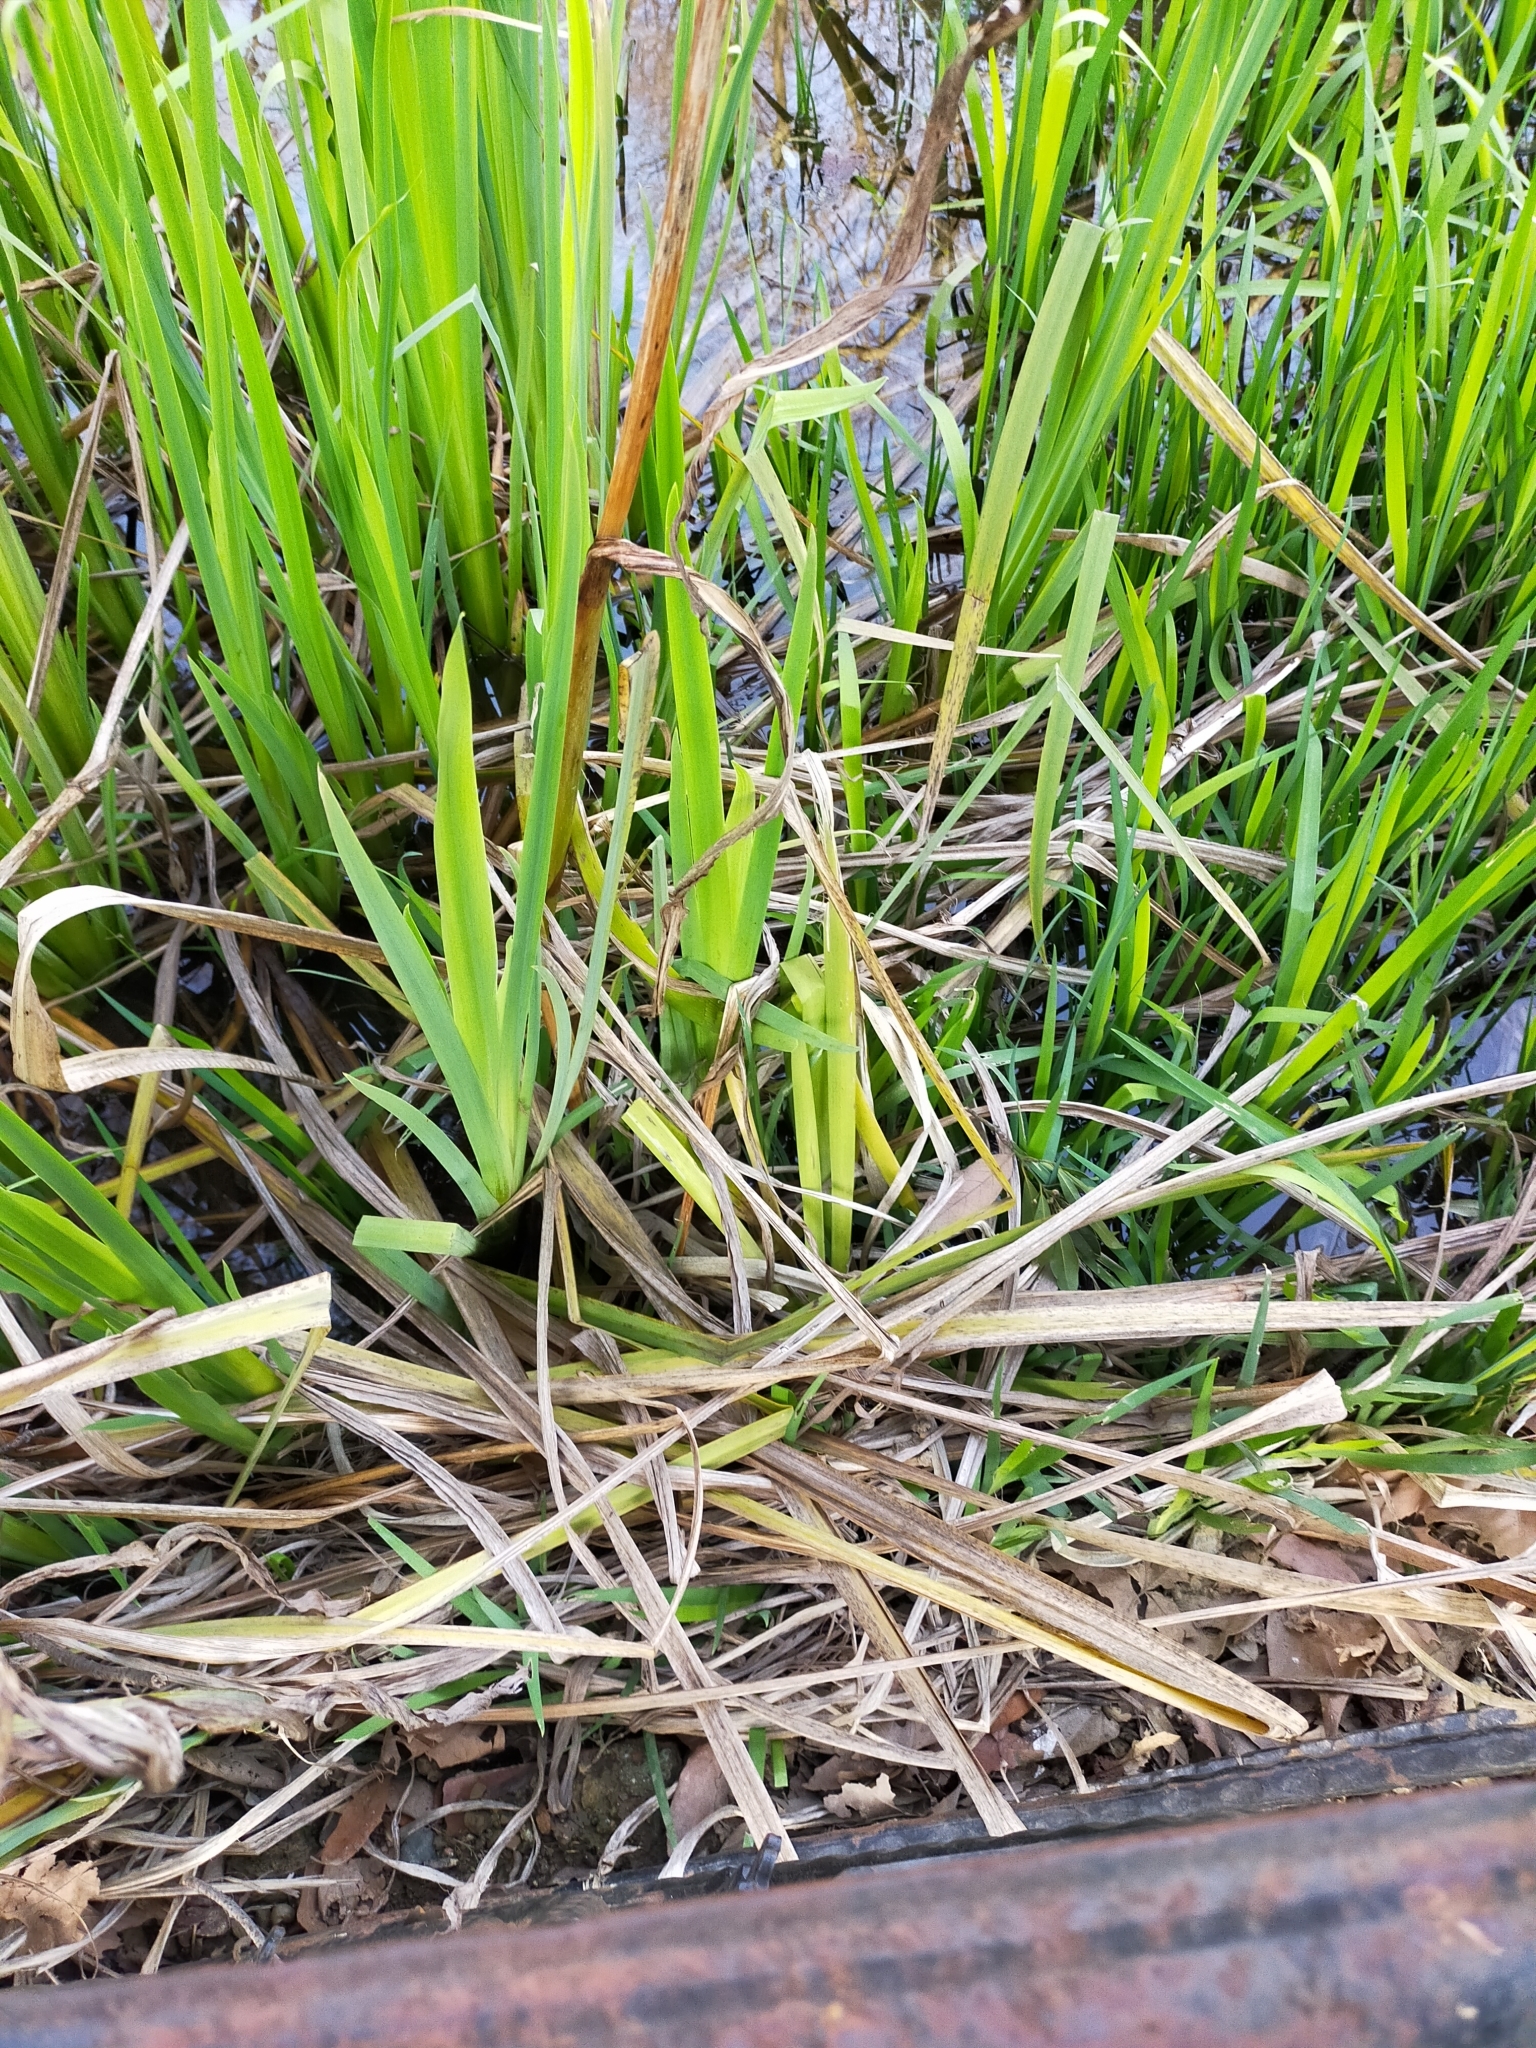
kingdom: Plantae
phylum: Tracheophyta
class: Liliopsida
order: Asparagales
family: Iridaceae
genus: Iris
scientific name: Iris
